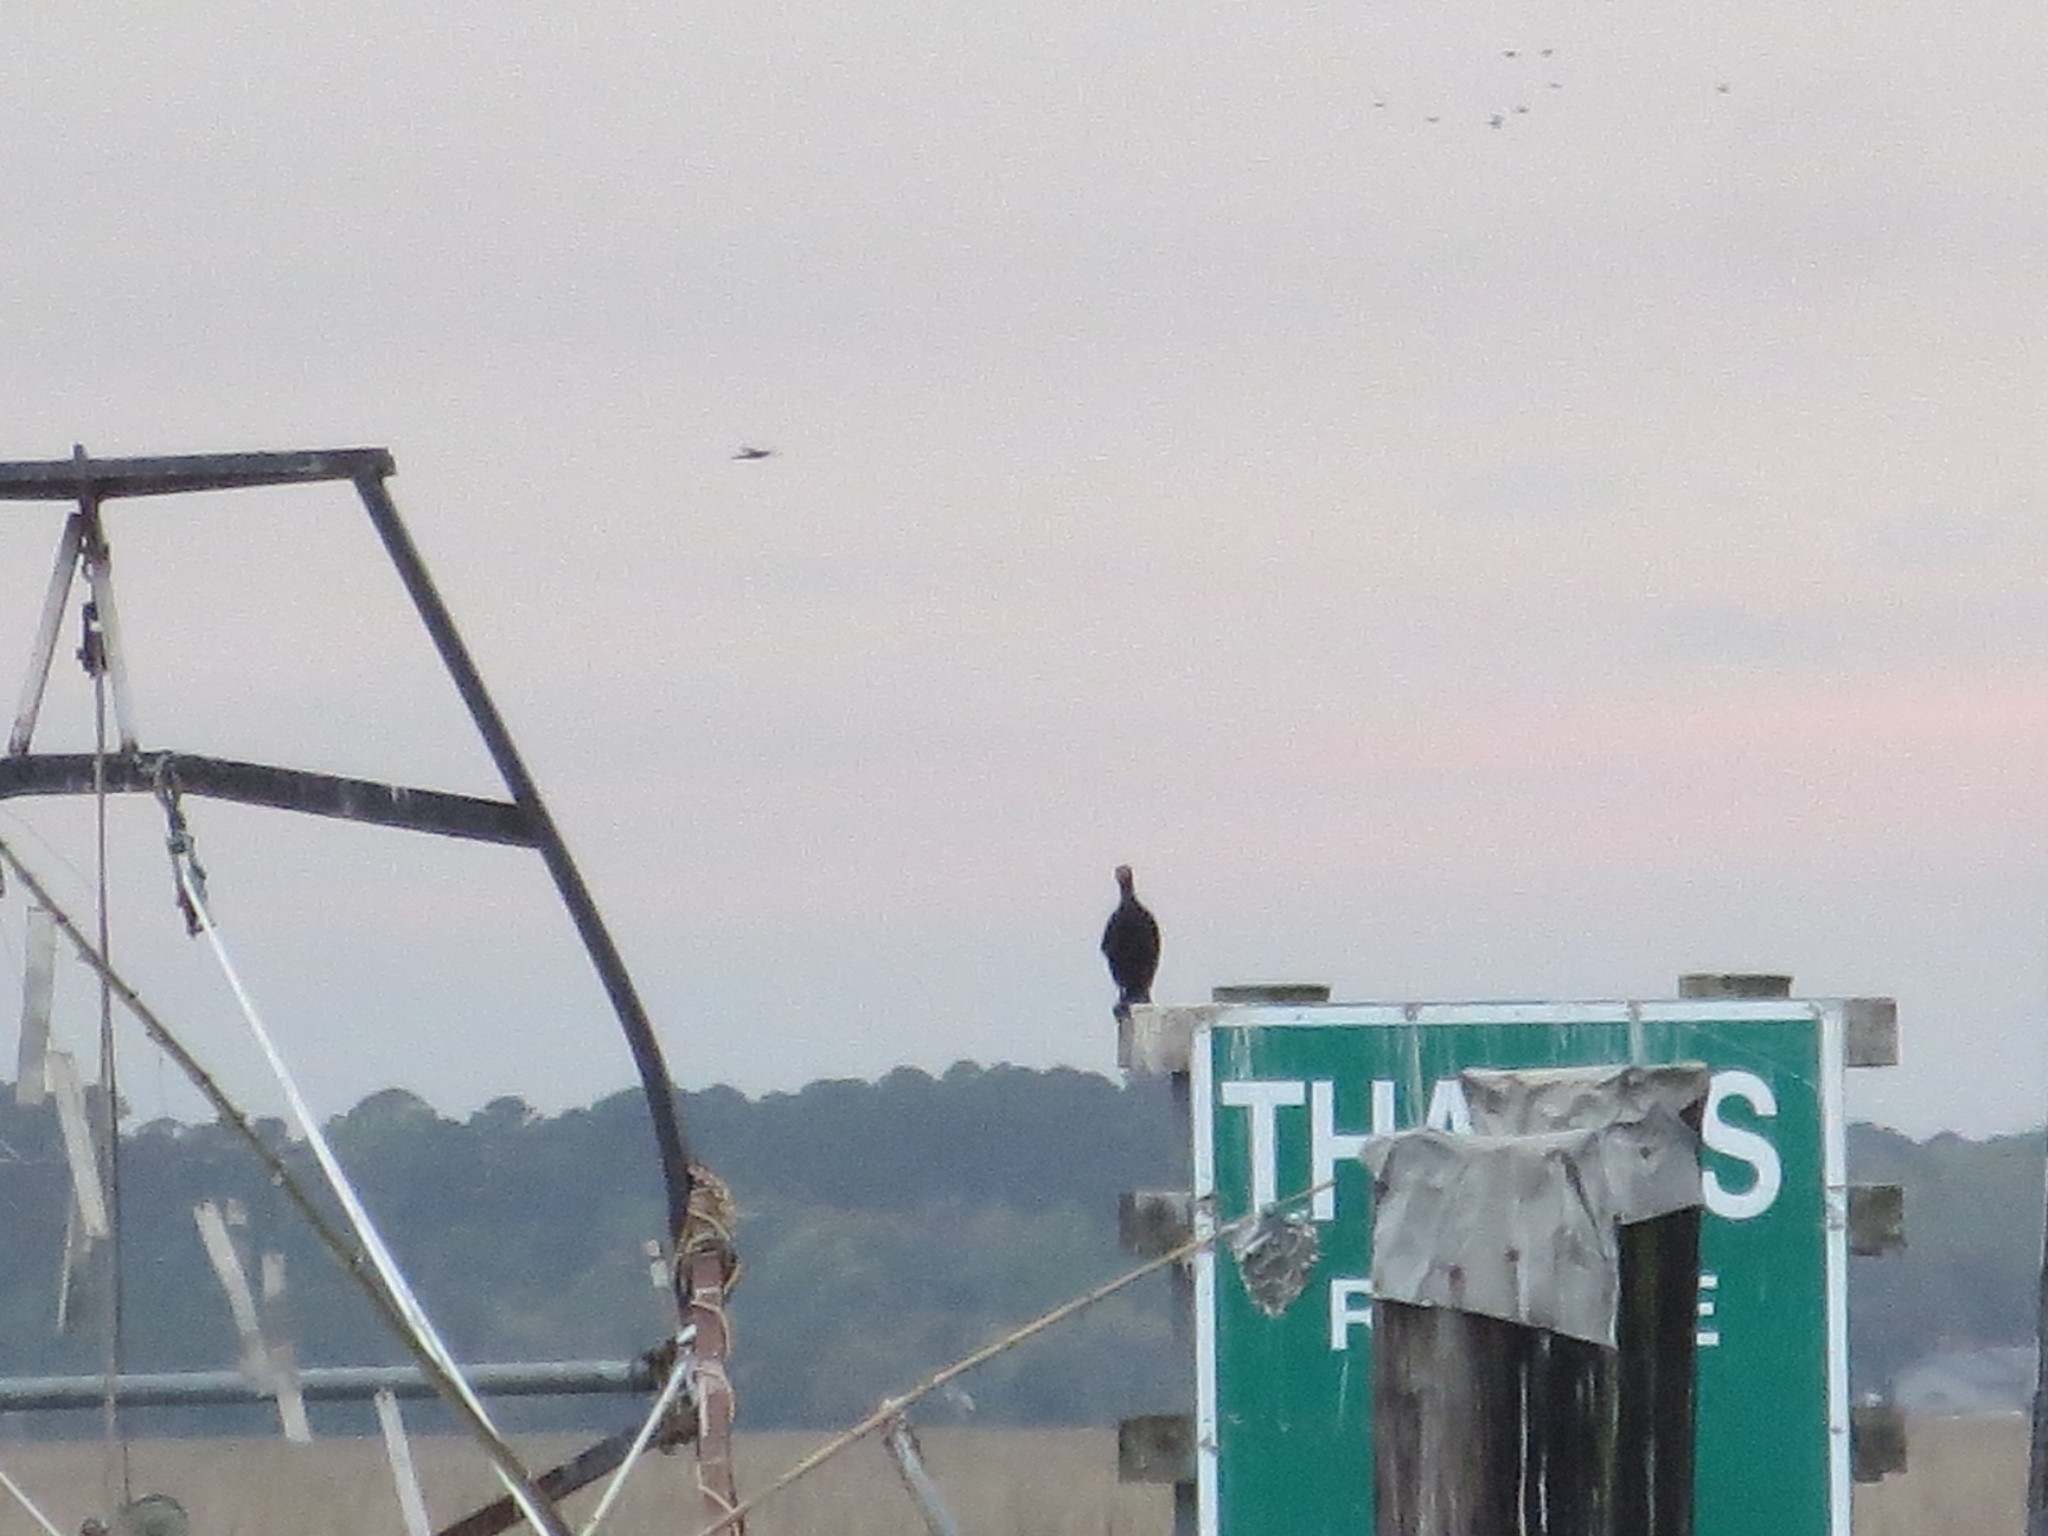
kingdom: Animalia
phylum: Chordata
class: Aves
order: Suliformes
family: Phalacrocoracidae
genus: Phalacrocorax
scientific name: Phalacrocorax auritus
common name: Double-crested cormorant
